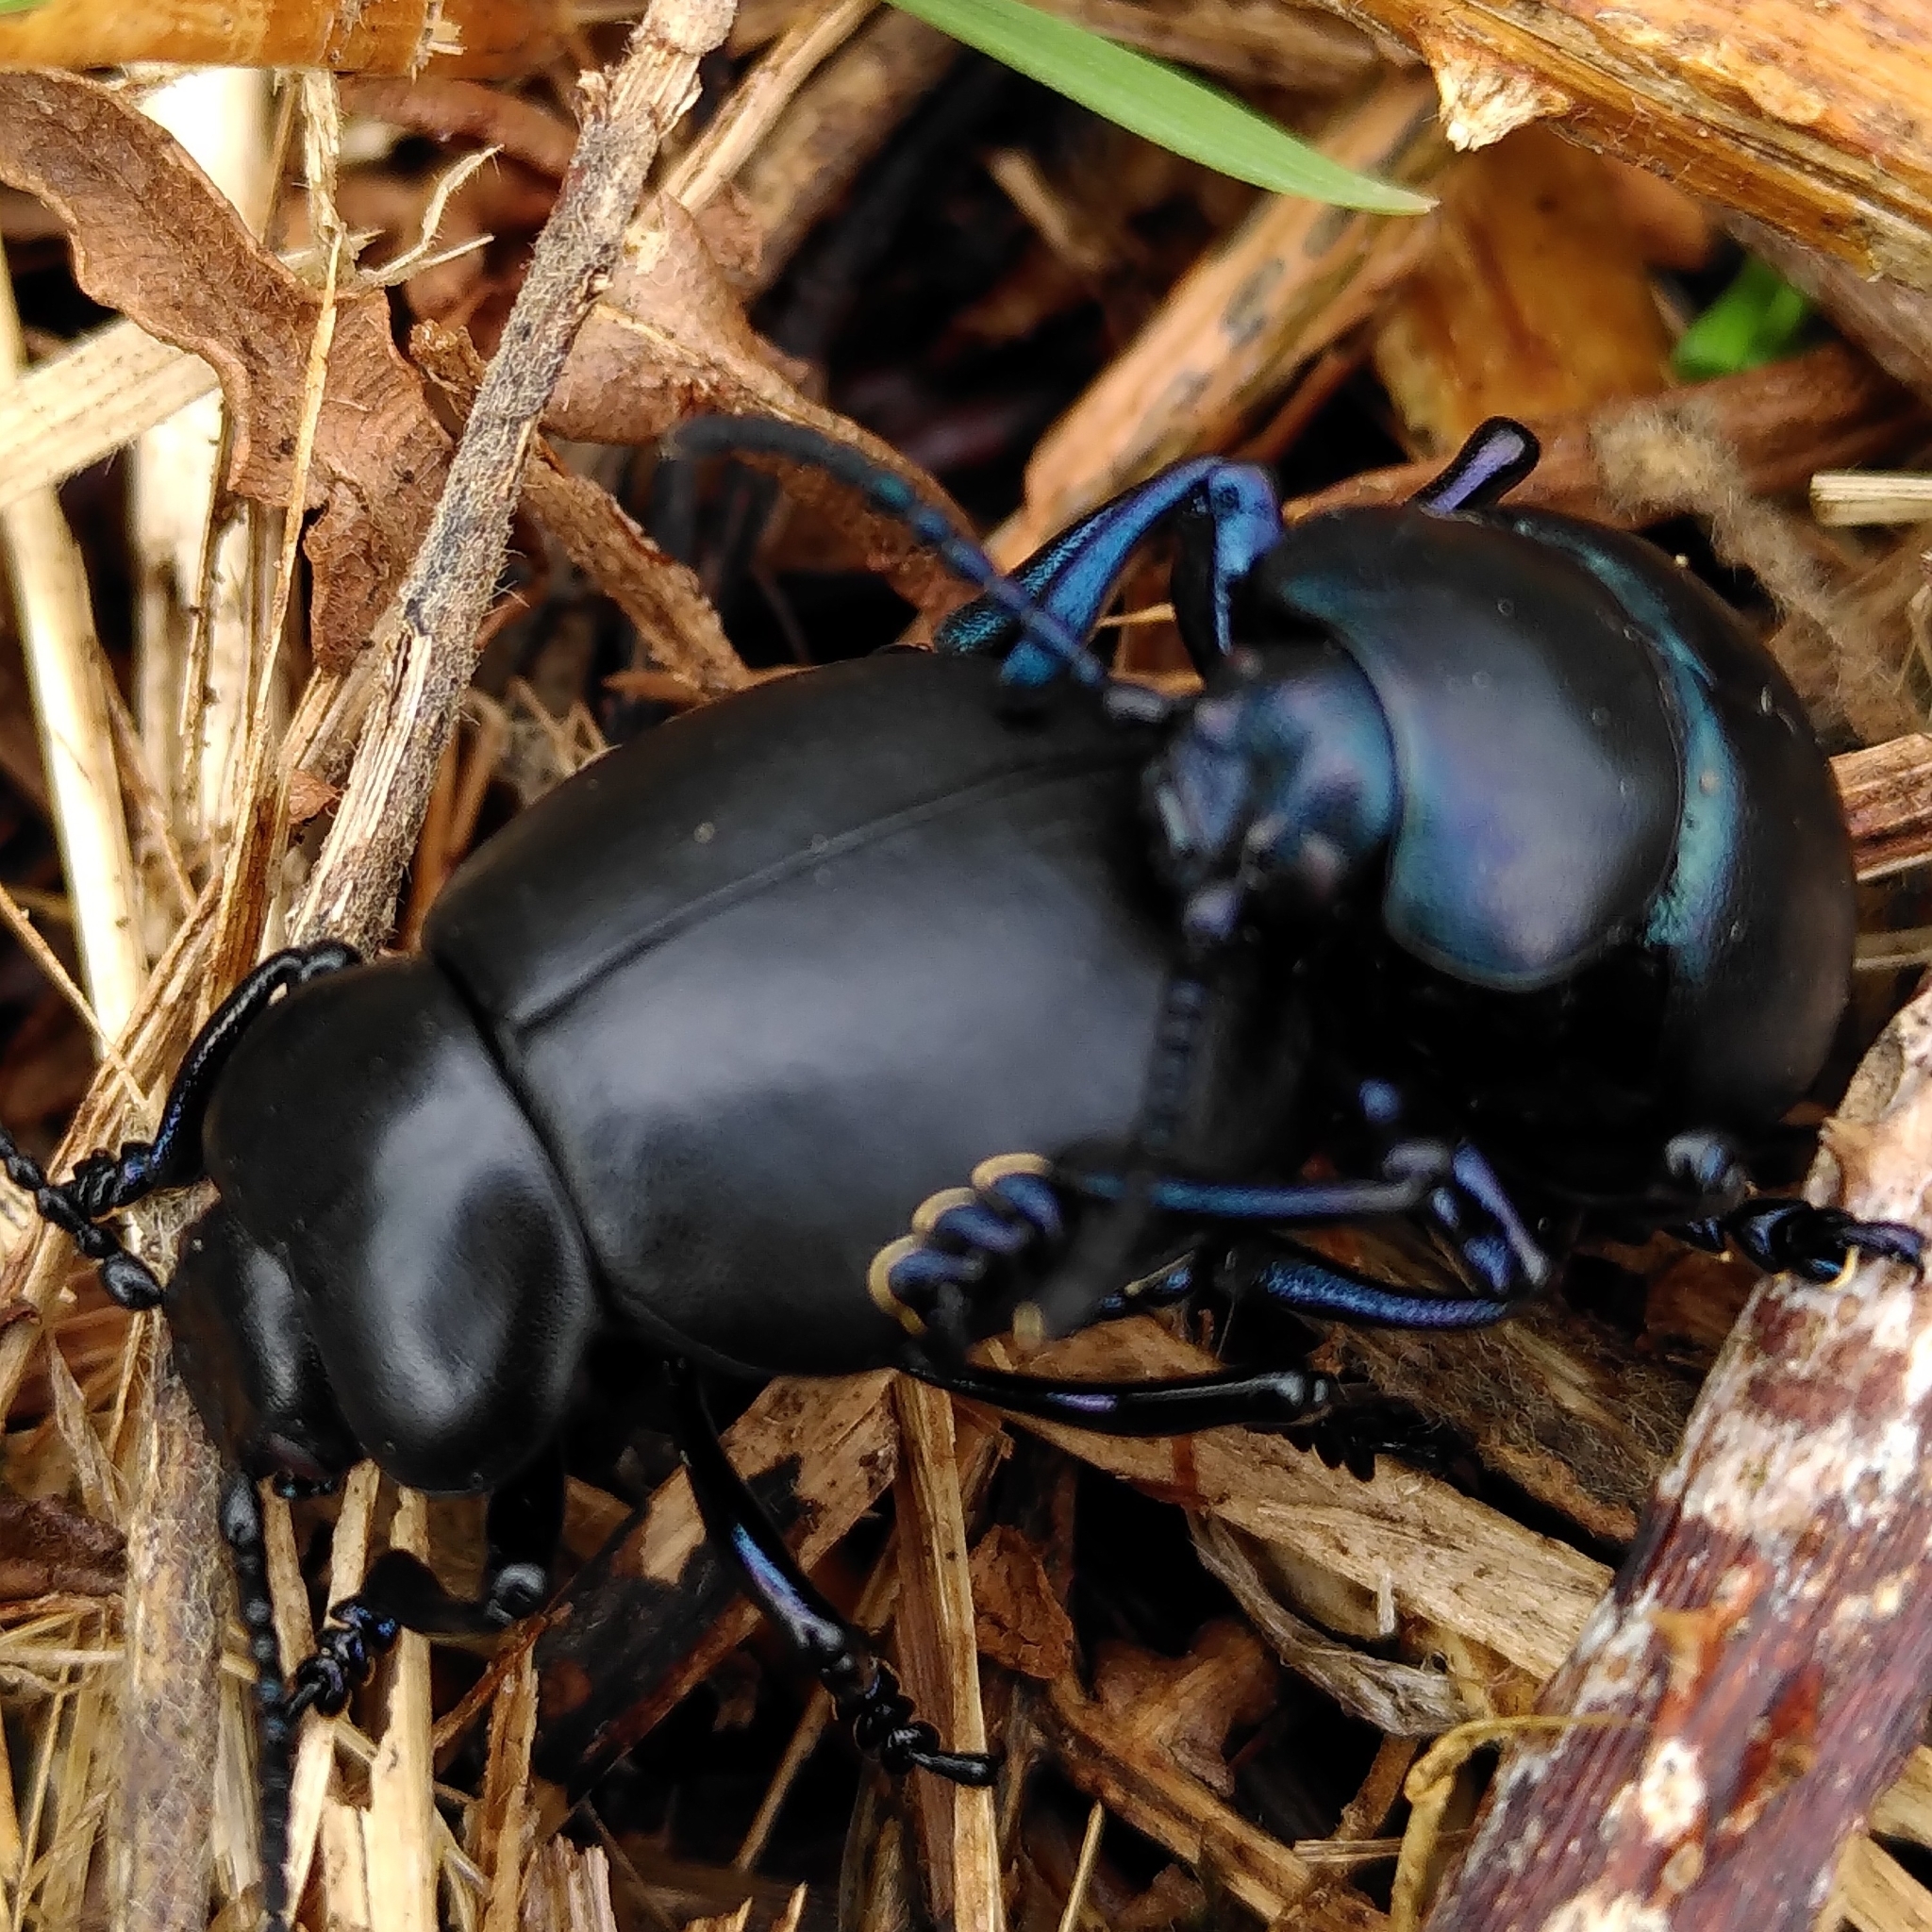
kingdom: Animalia
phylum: Arthropoda
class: Insecta
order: Coleoptera
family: Chrysomelidae
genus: Timarcha
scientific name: Timarcha tenebricosa
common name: Bloody-nosed beetle
